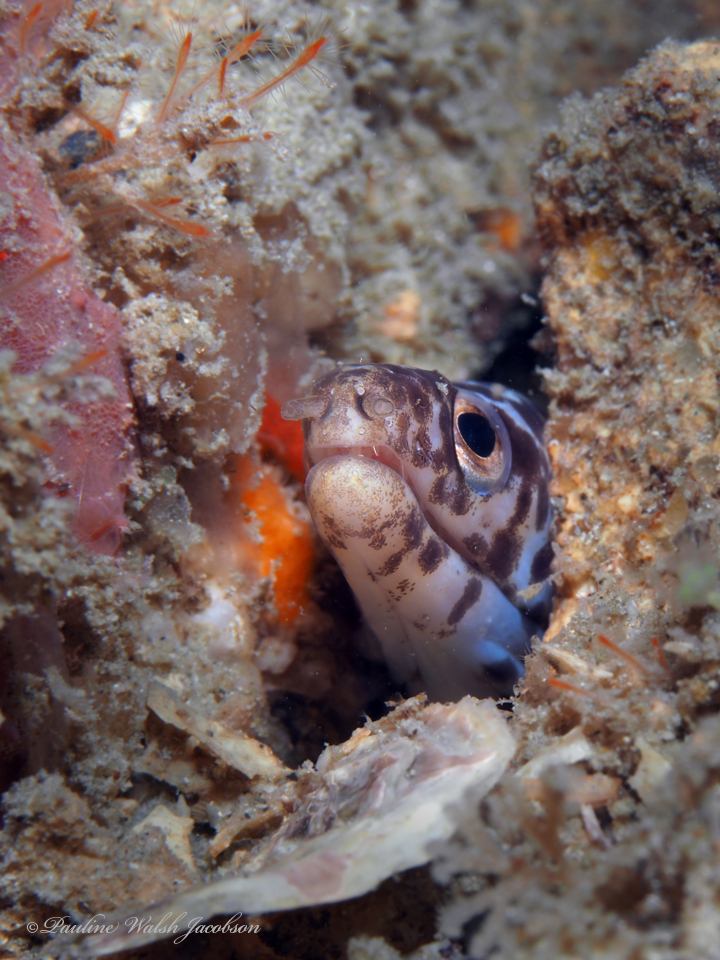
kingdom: Animalia
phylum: Chordata
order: Anguilliformes
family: Muraenidae
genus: Gymnothorax
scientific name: Gymnothorax moringa
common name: Spotted moray
